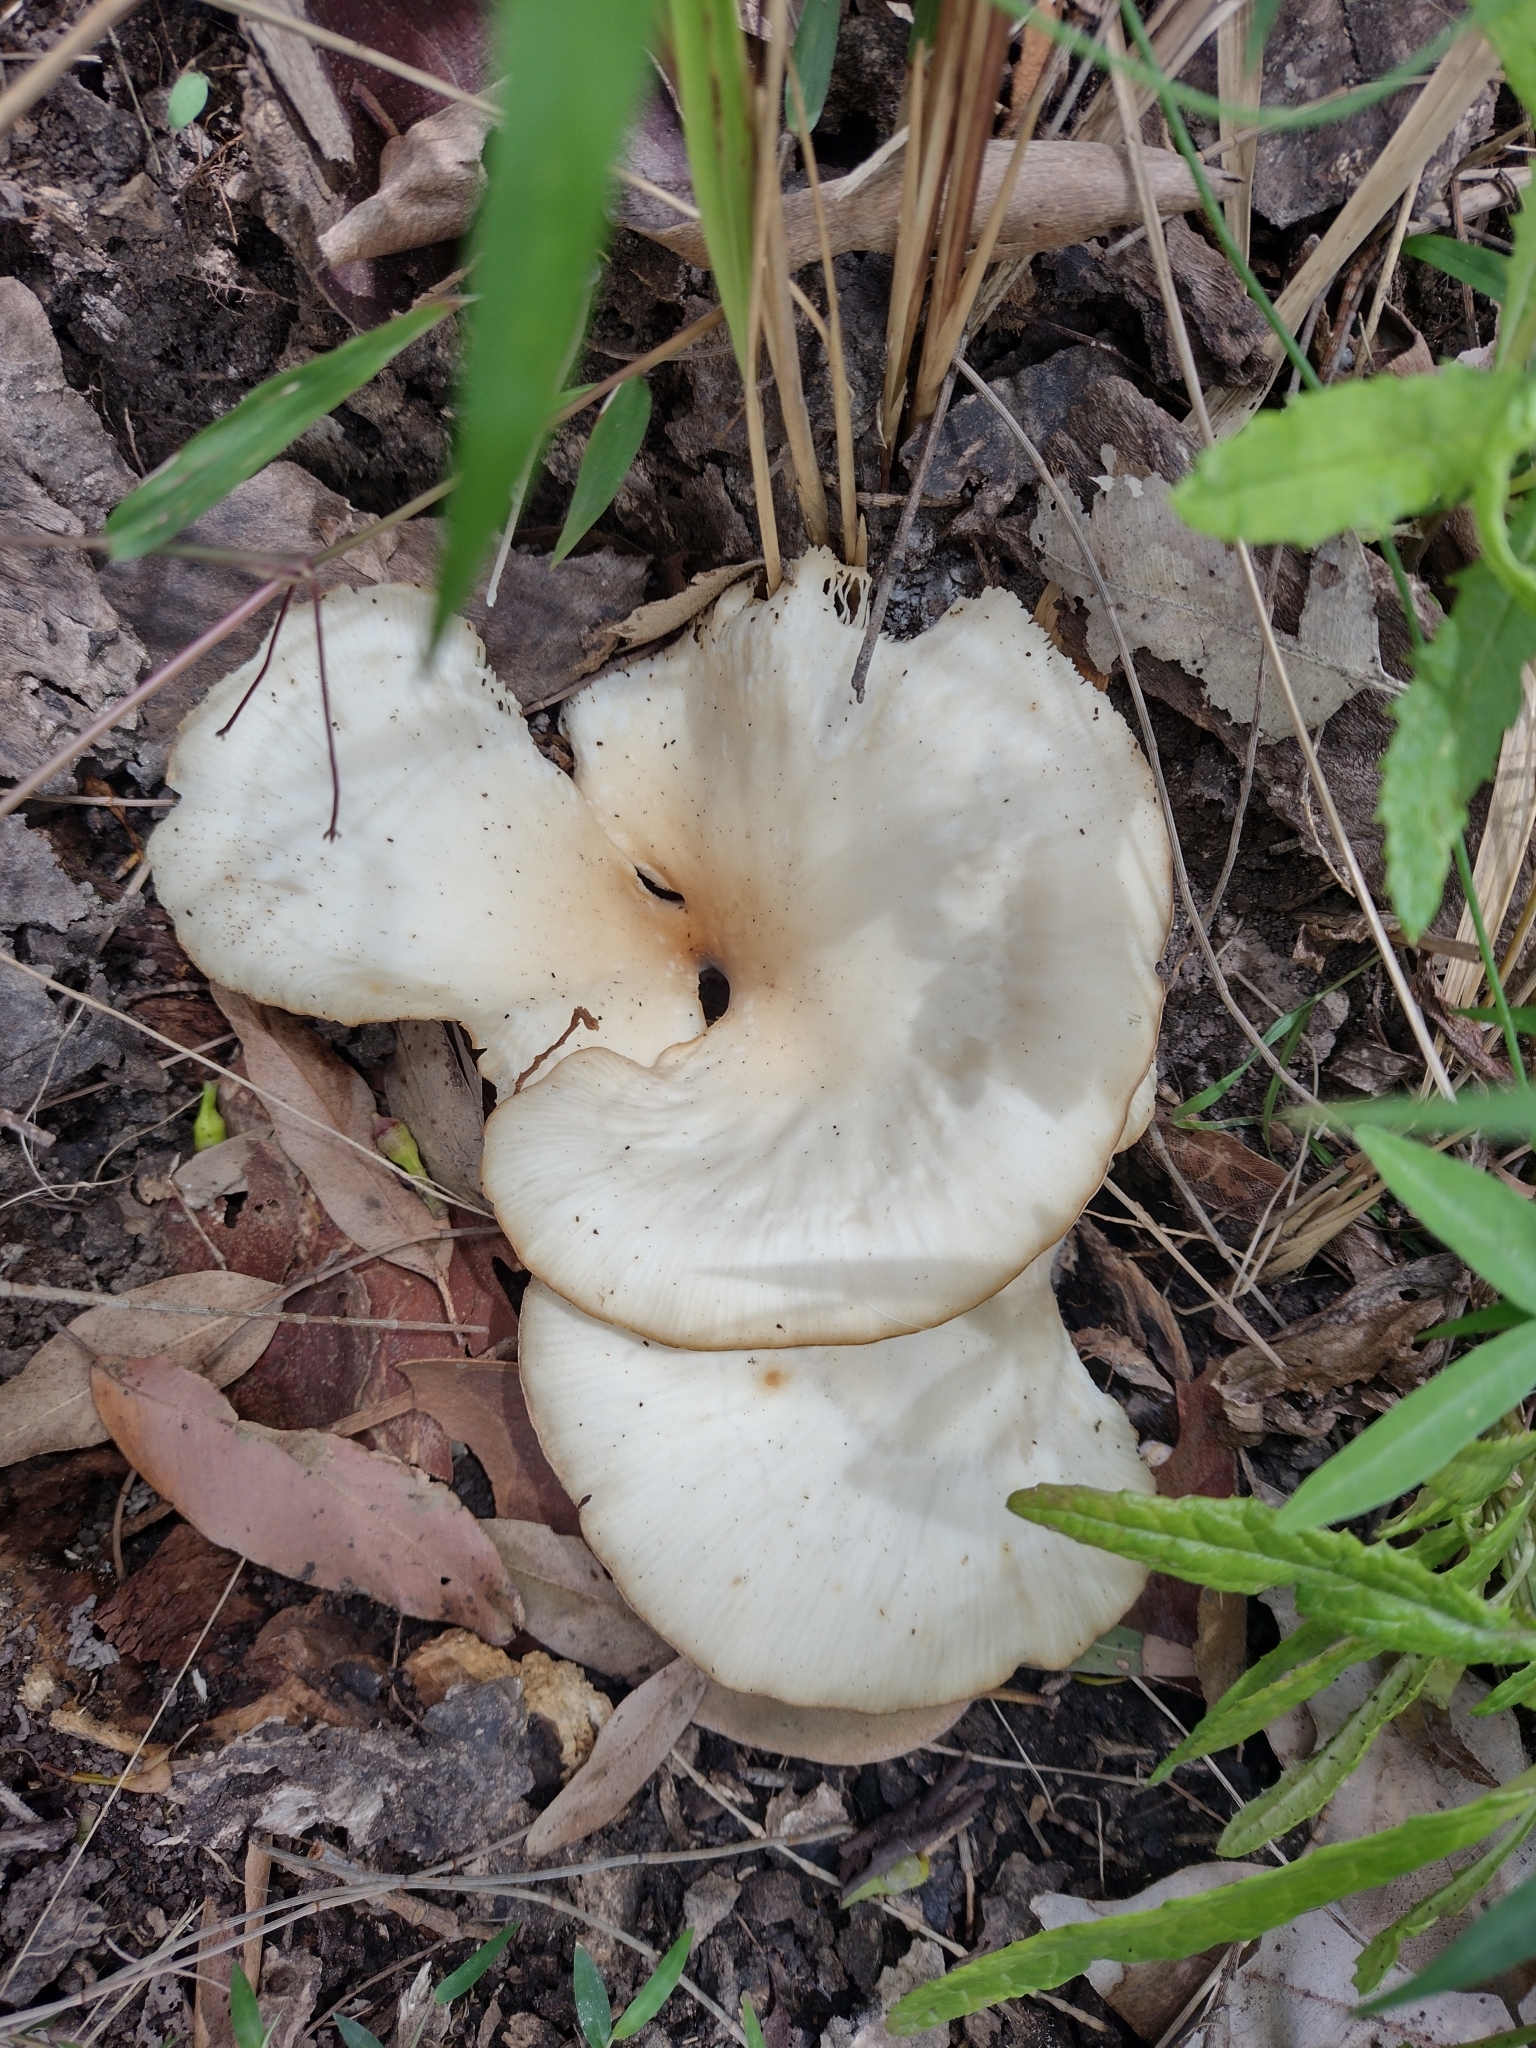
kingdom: Fungi
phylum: Basidiomycota
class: Agaricomycetes
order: Agaricales
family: Omphalotaceae
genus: Omphalotus
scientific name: Omphalotus nidiformis
